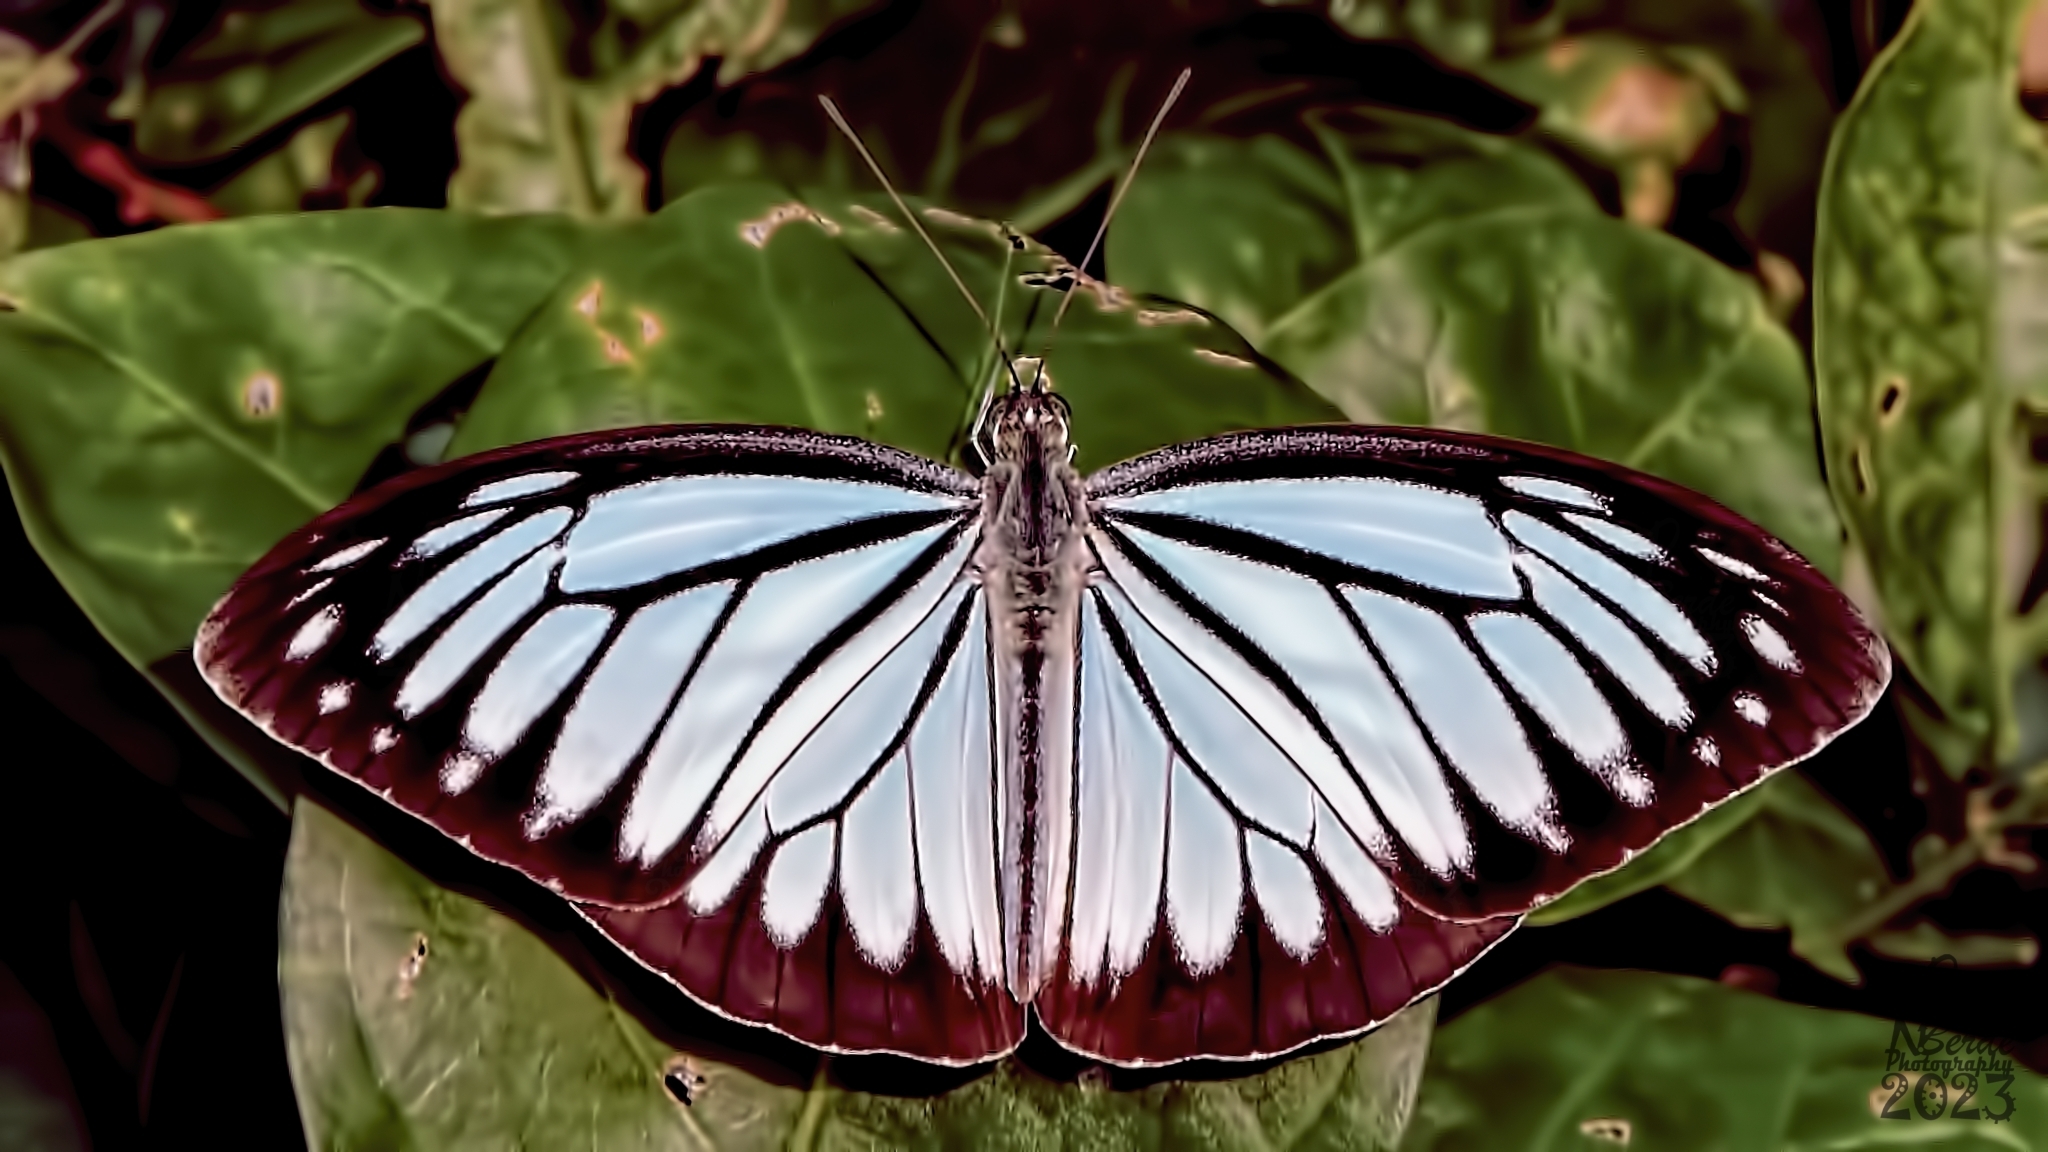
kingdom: Animalia
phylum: Arthropoda
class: Insecta
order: Lepidoptera
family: Pieridae
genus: Pareronia
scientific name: Pareronia hippia
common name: Indian wanderer
